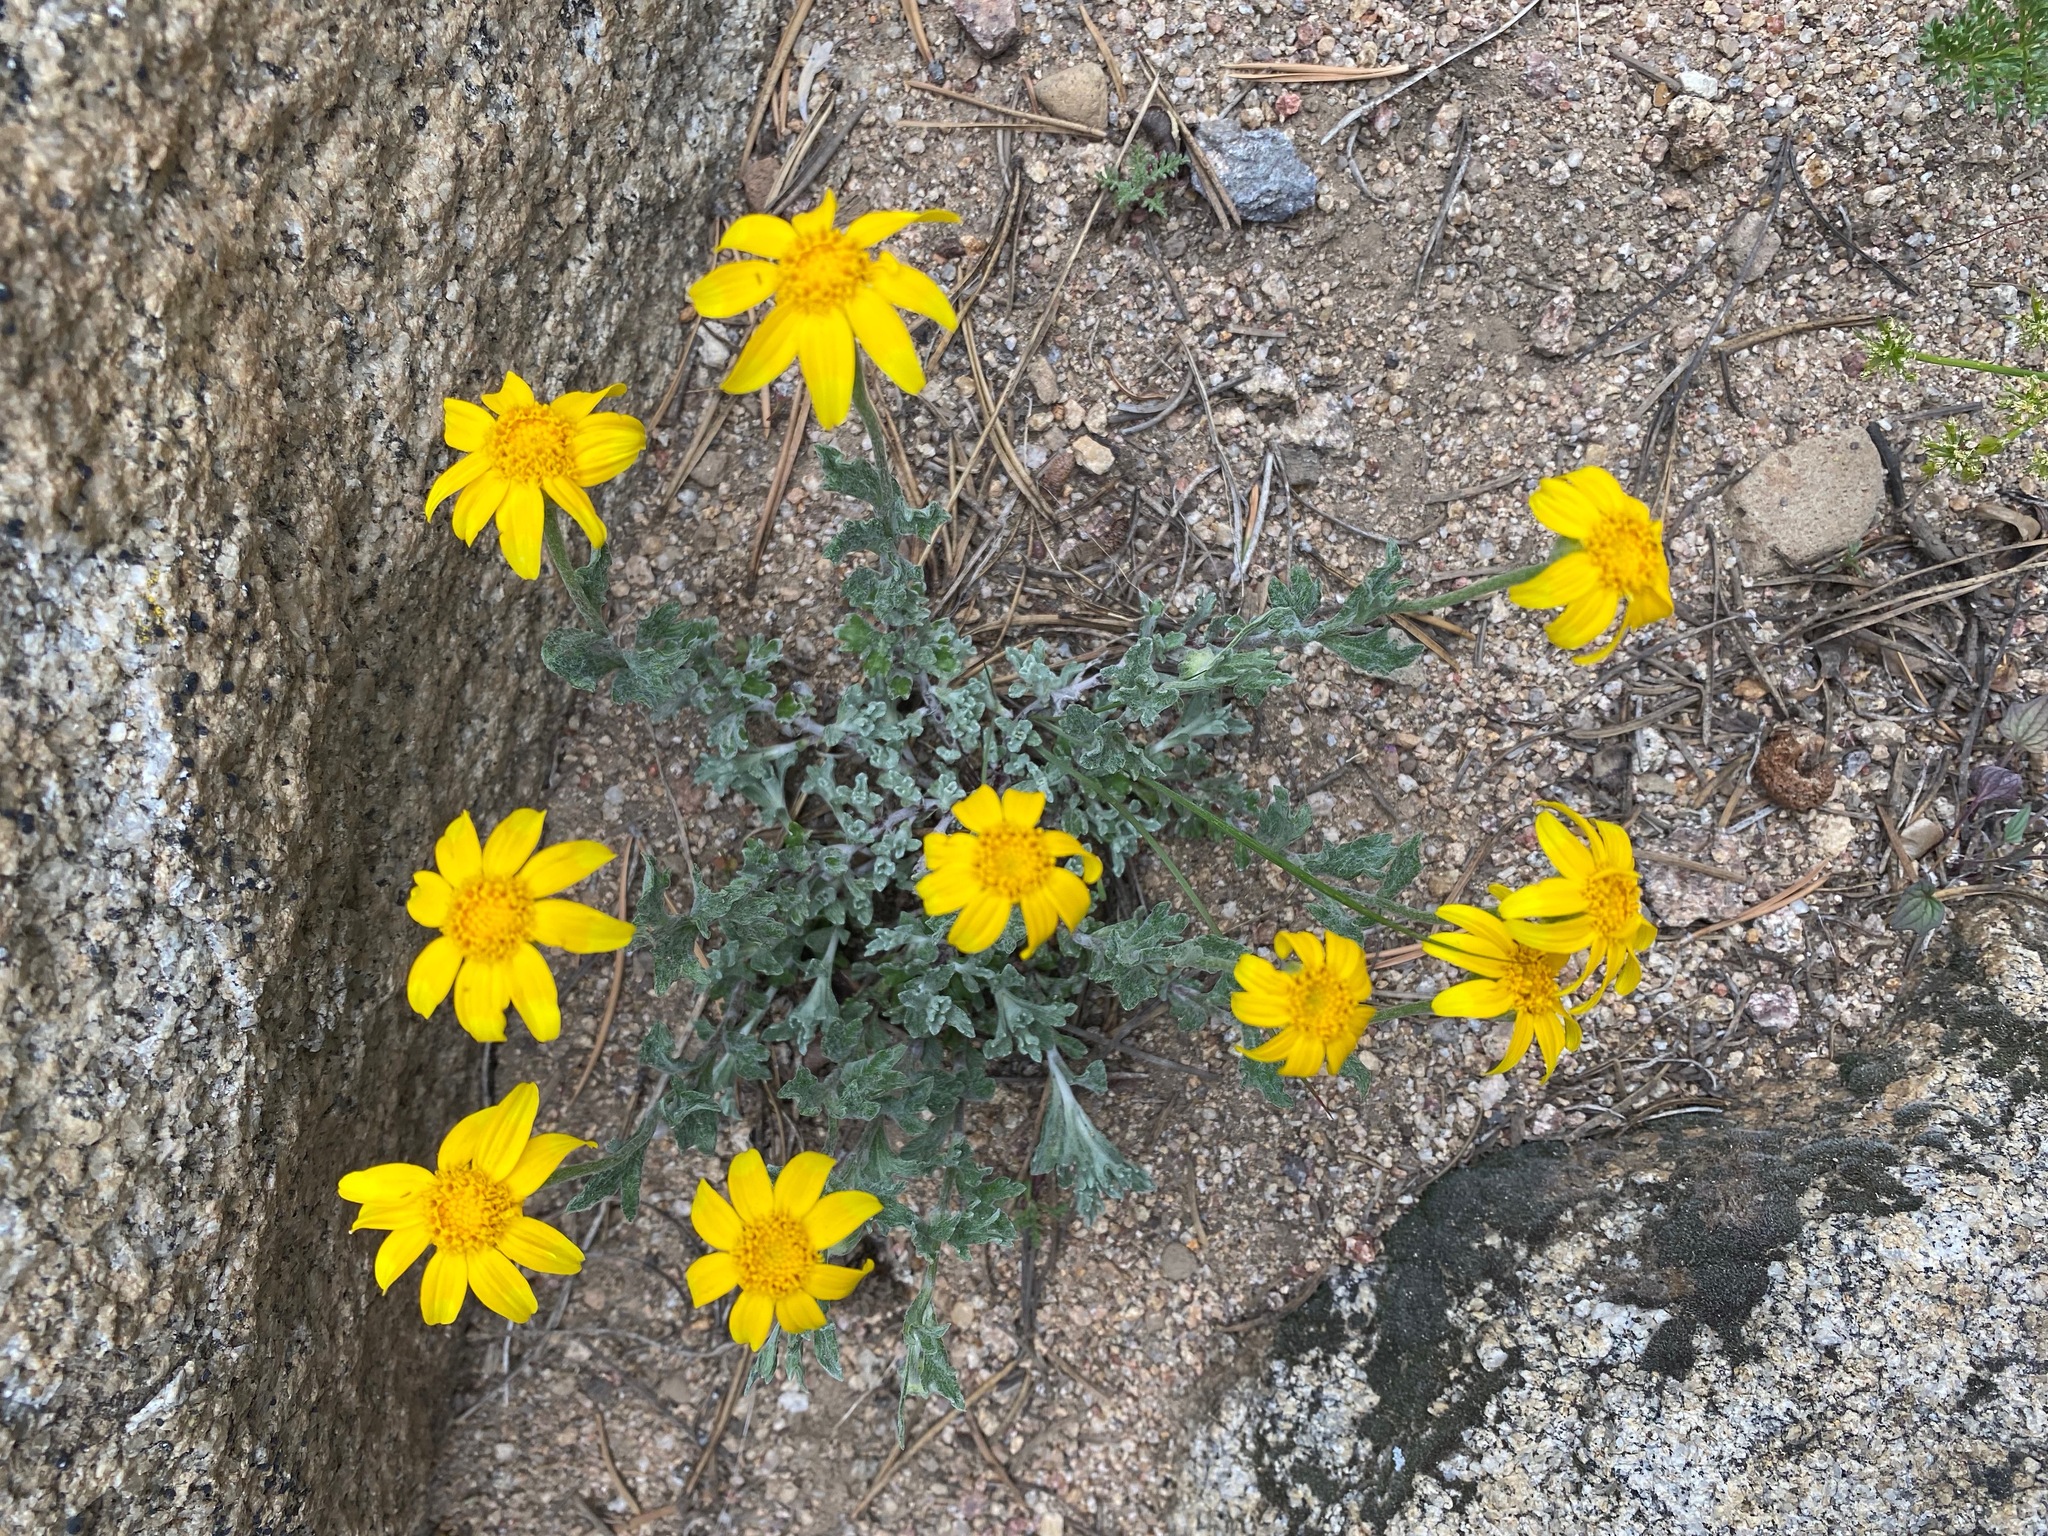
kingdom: Plantae
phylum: Tracheophyta
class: Magnoliopsida
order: Asterales
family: Asteraceae
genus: Eriophyllum
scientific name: Eriophyllum lanatum
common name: Common woolly-sunflower
